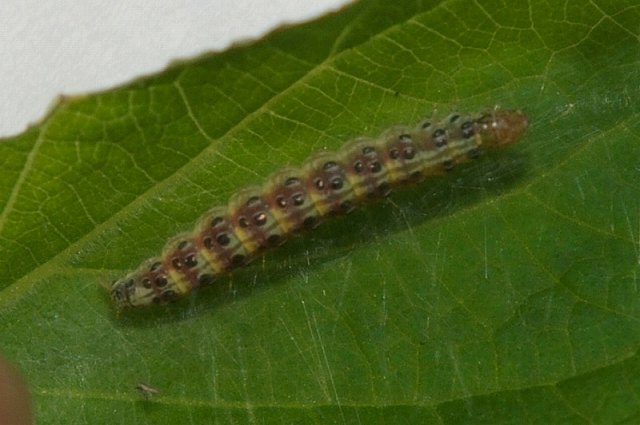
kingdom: Animalia
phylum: Arthropoda
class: Insecta
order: Lepidoptera
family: Crambidae
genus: Pyrausta
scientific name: Pyrausta phoenicealis
